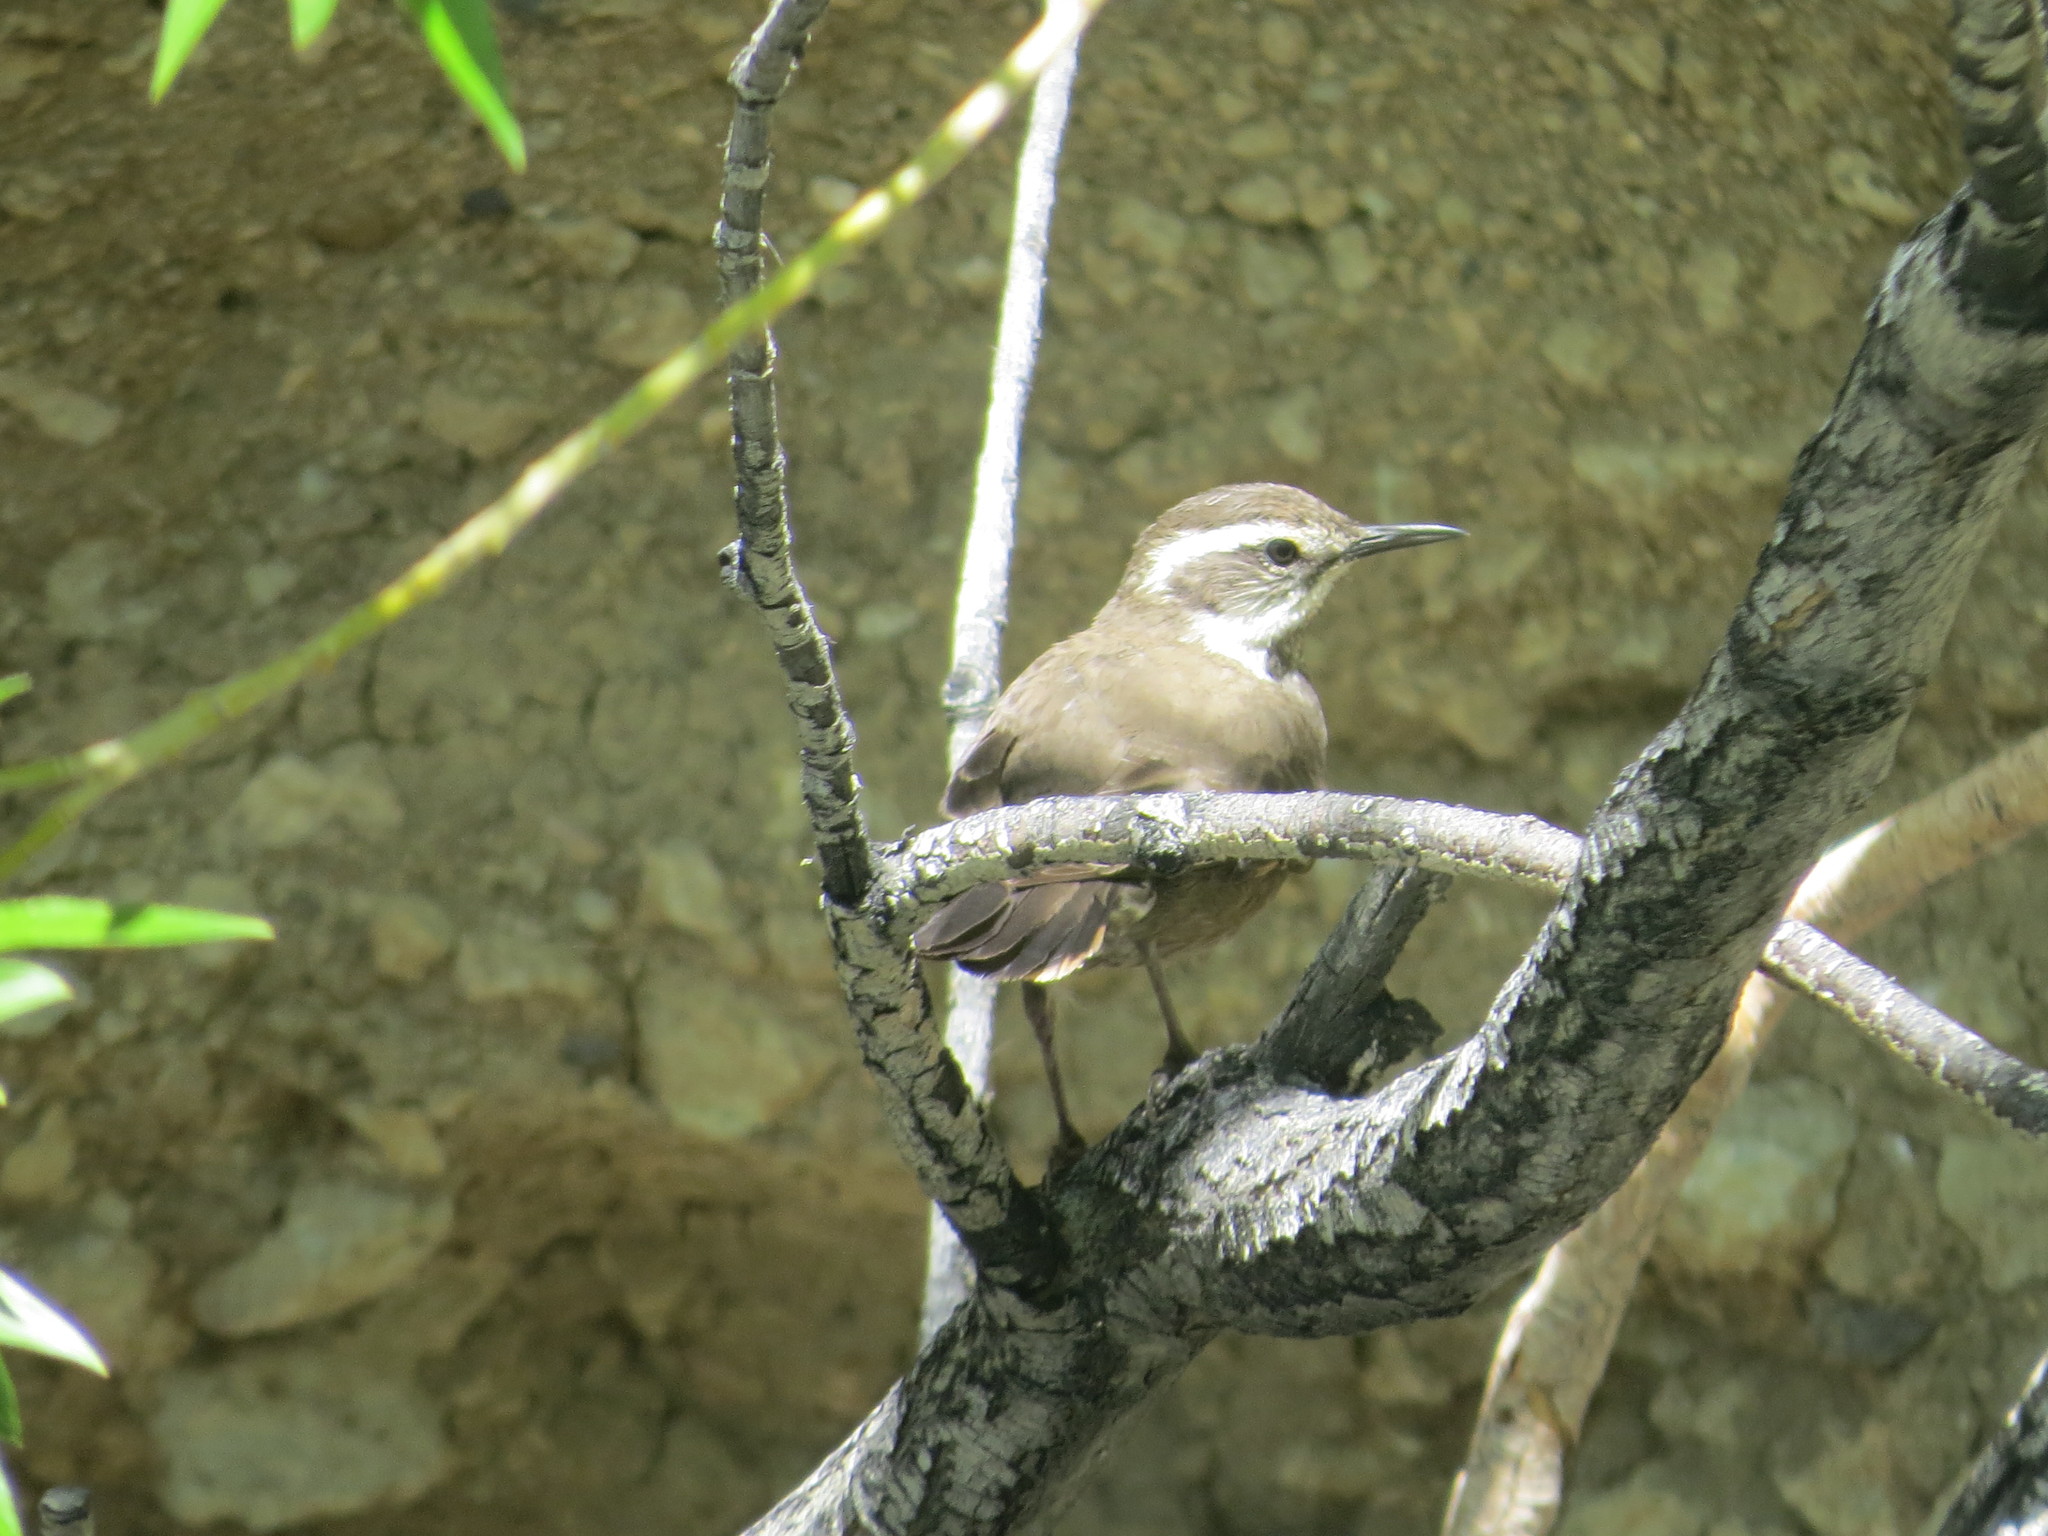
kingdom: Animalia
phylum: Chordata
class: Aves
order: Passeriformes
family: Furnariidae
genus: Cinclodes
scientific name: Cinclodes fuscus
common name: Buff-winged cinclodes
